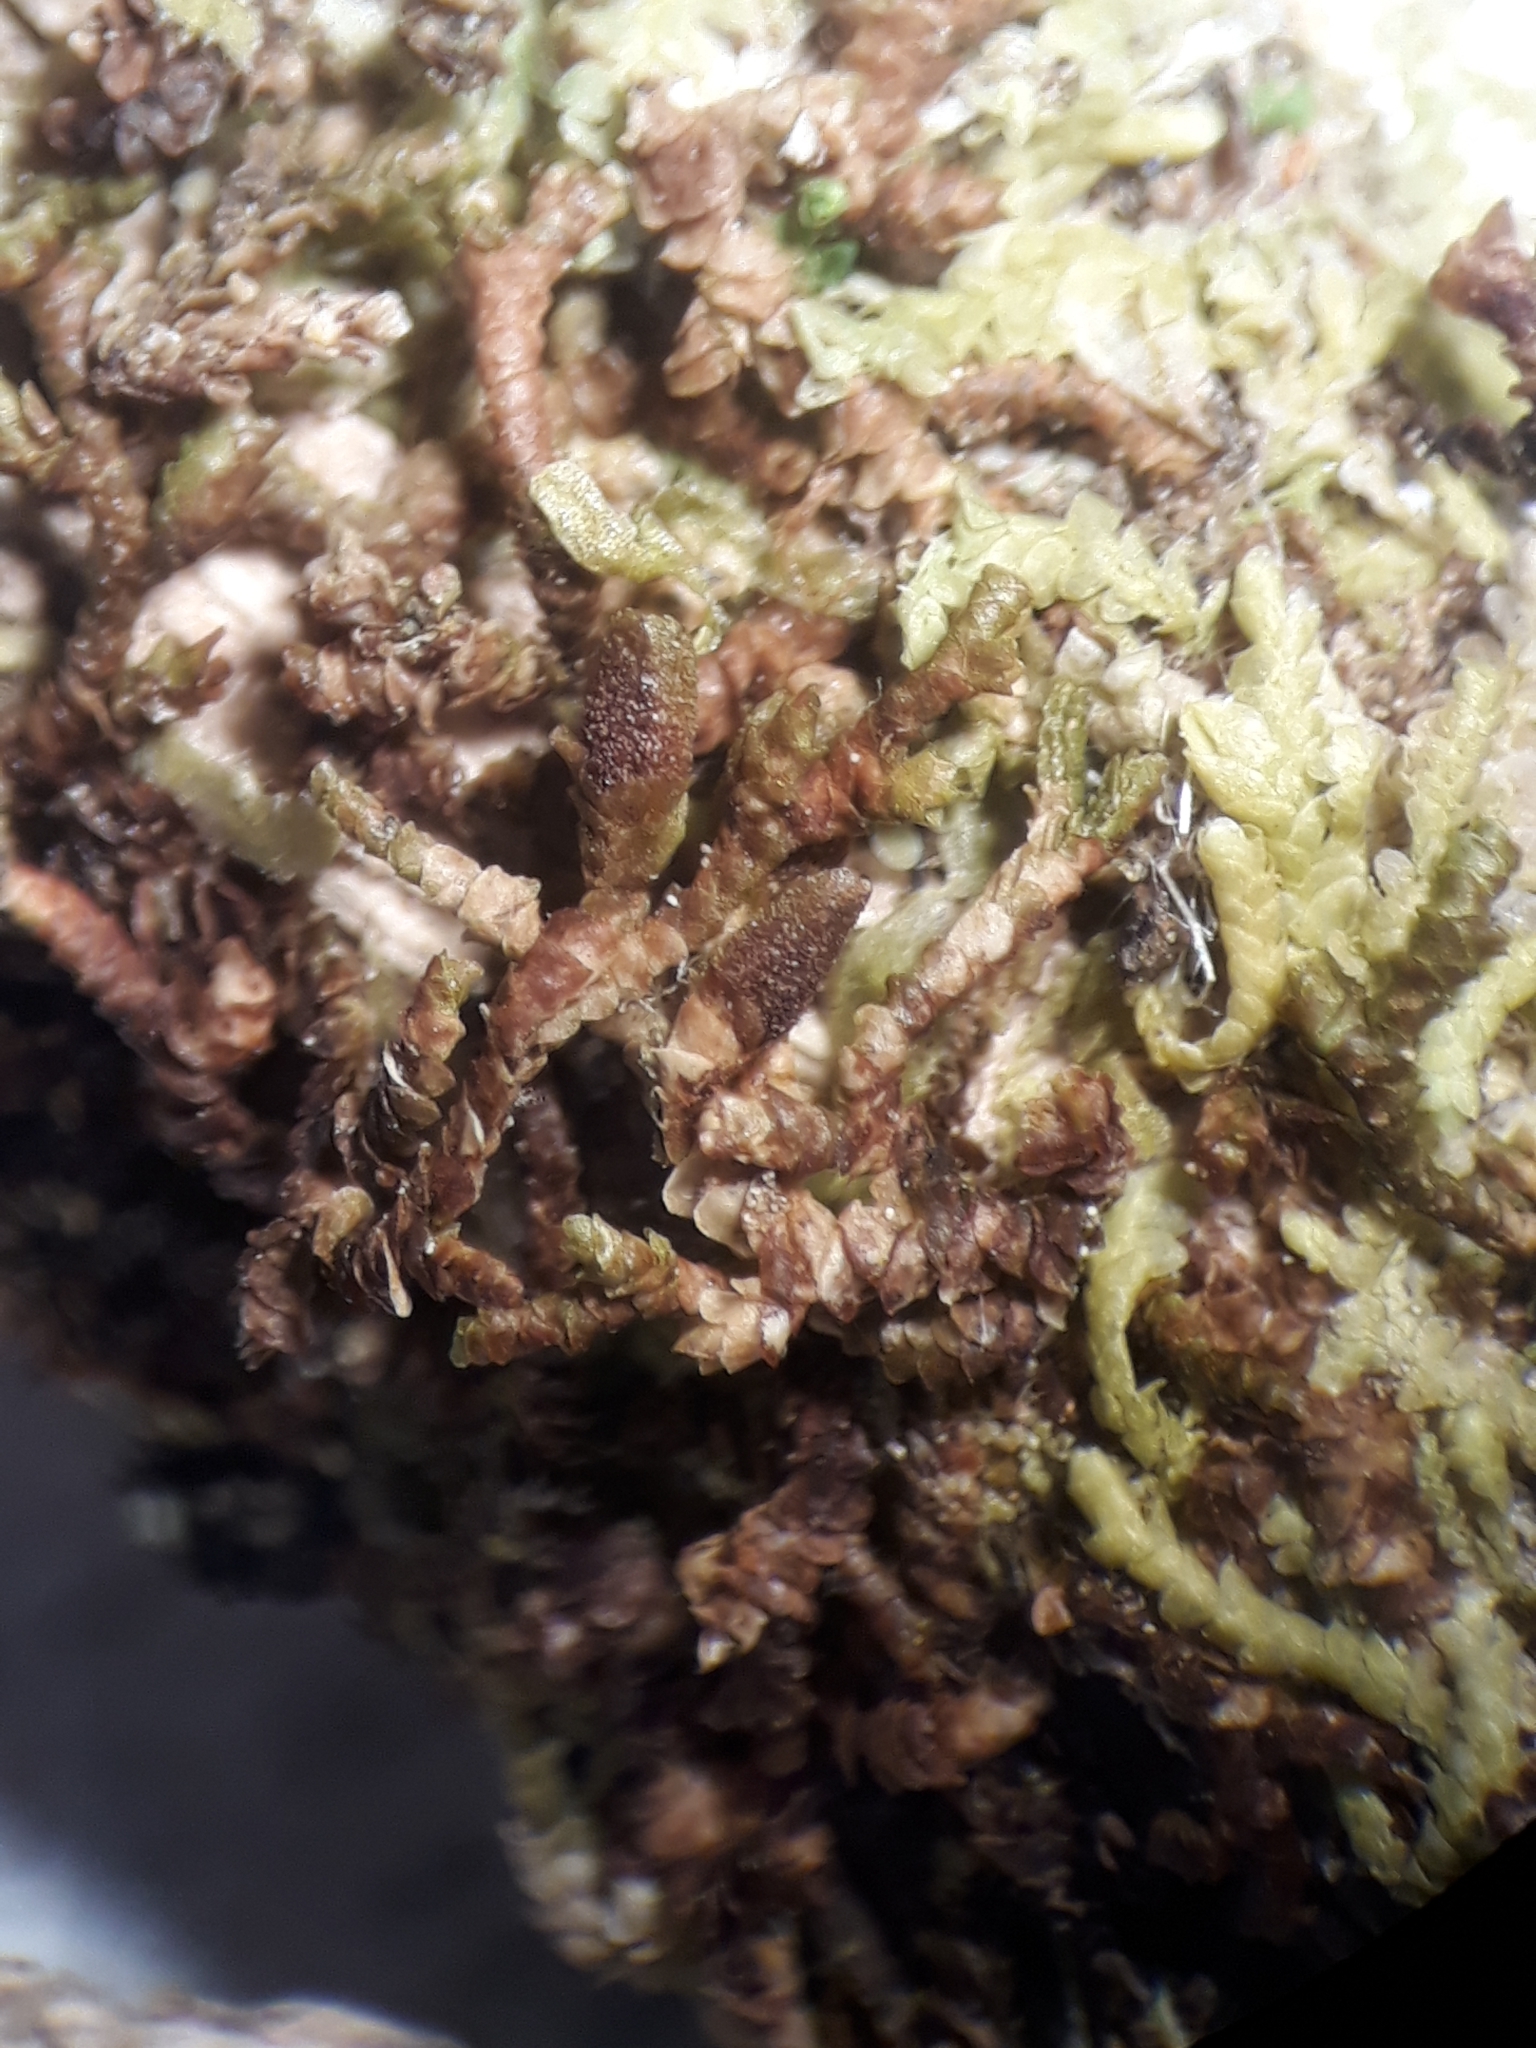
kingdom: Plantae
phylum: Marchantiophyta
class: Jungermanniopsida
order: Porellales
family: Frullaniaceae
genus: Frullania
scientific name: Frullania pycnantha
